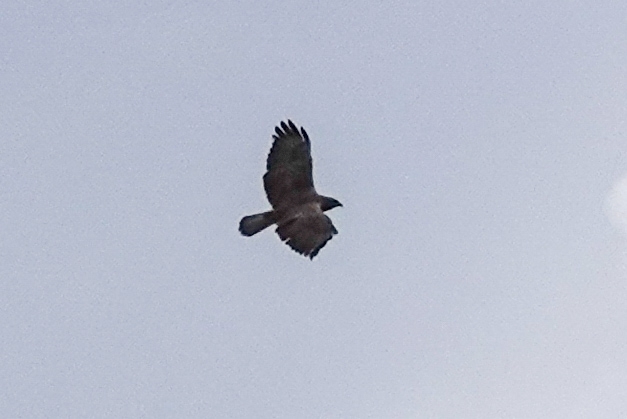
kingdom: Animalia
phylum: Chordata
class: Aves
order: Accipitriformes
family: Accipitridae
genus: Buteo
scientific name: Buteo buteo
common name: Common buzzard
